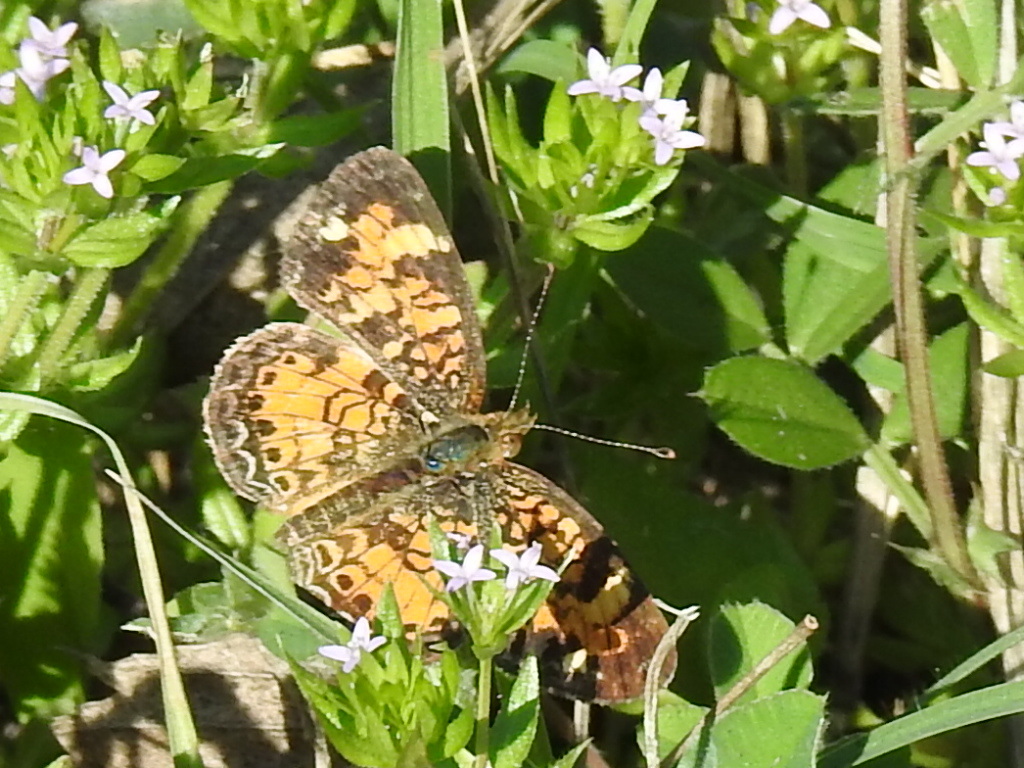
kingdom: Animalia
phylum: Arthropoda
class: Insecta
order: Lepidoptera
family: Nymphalidae
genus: Phyciodes
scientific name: Phyciodes tharos
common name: Pearl crescent
